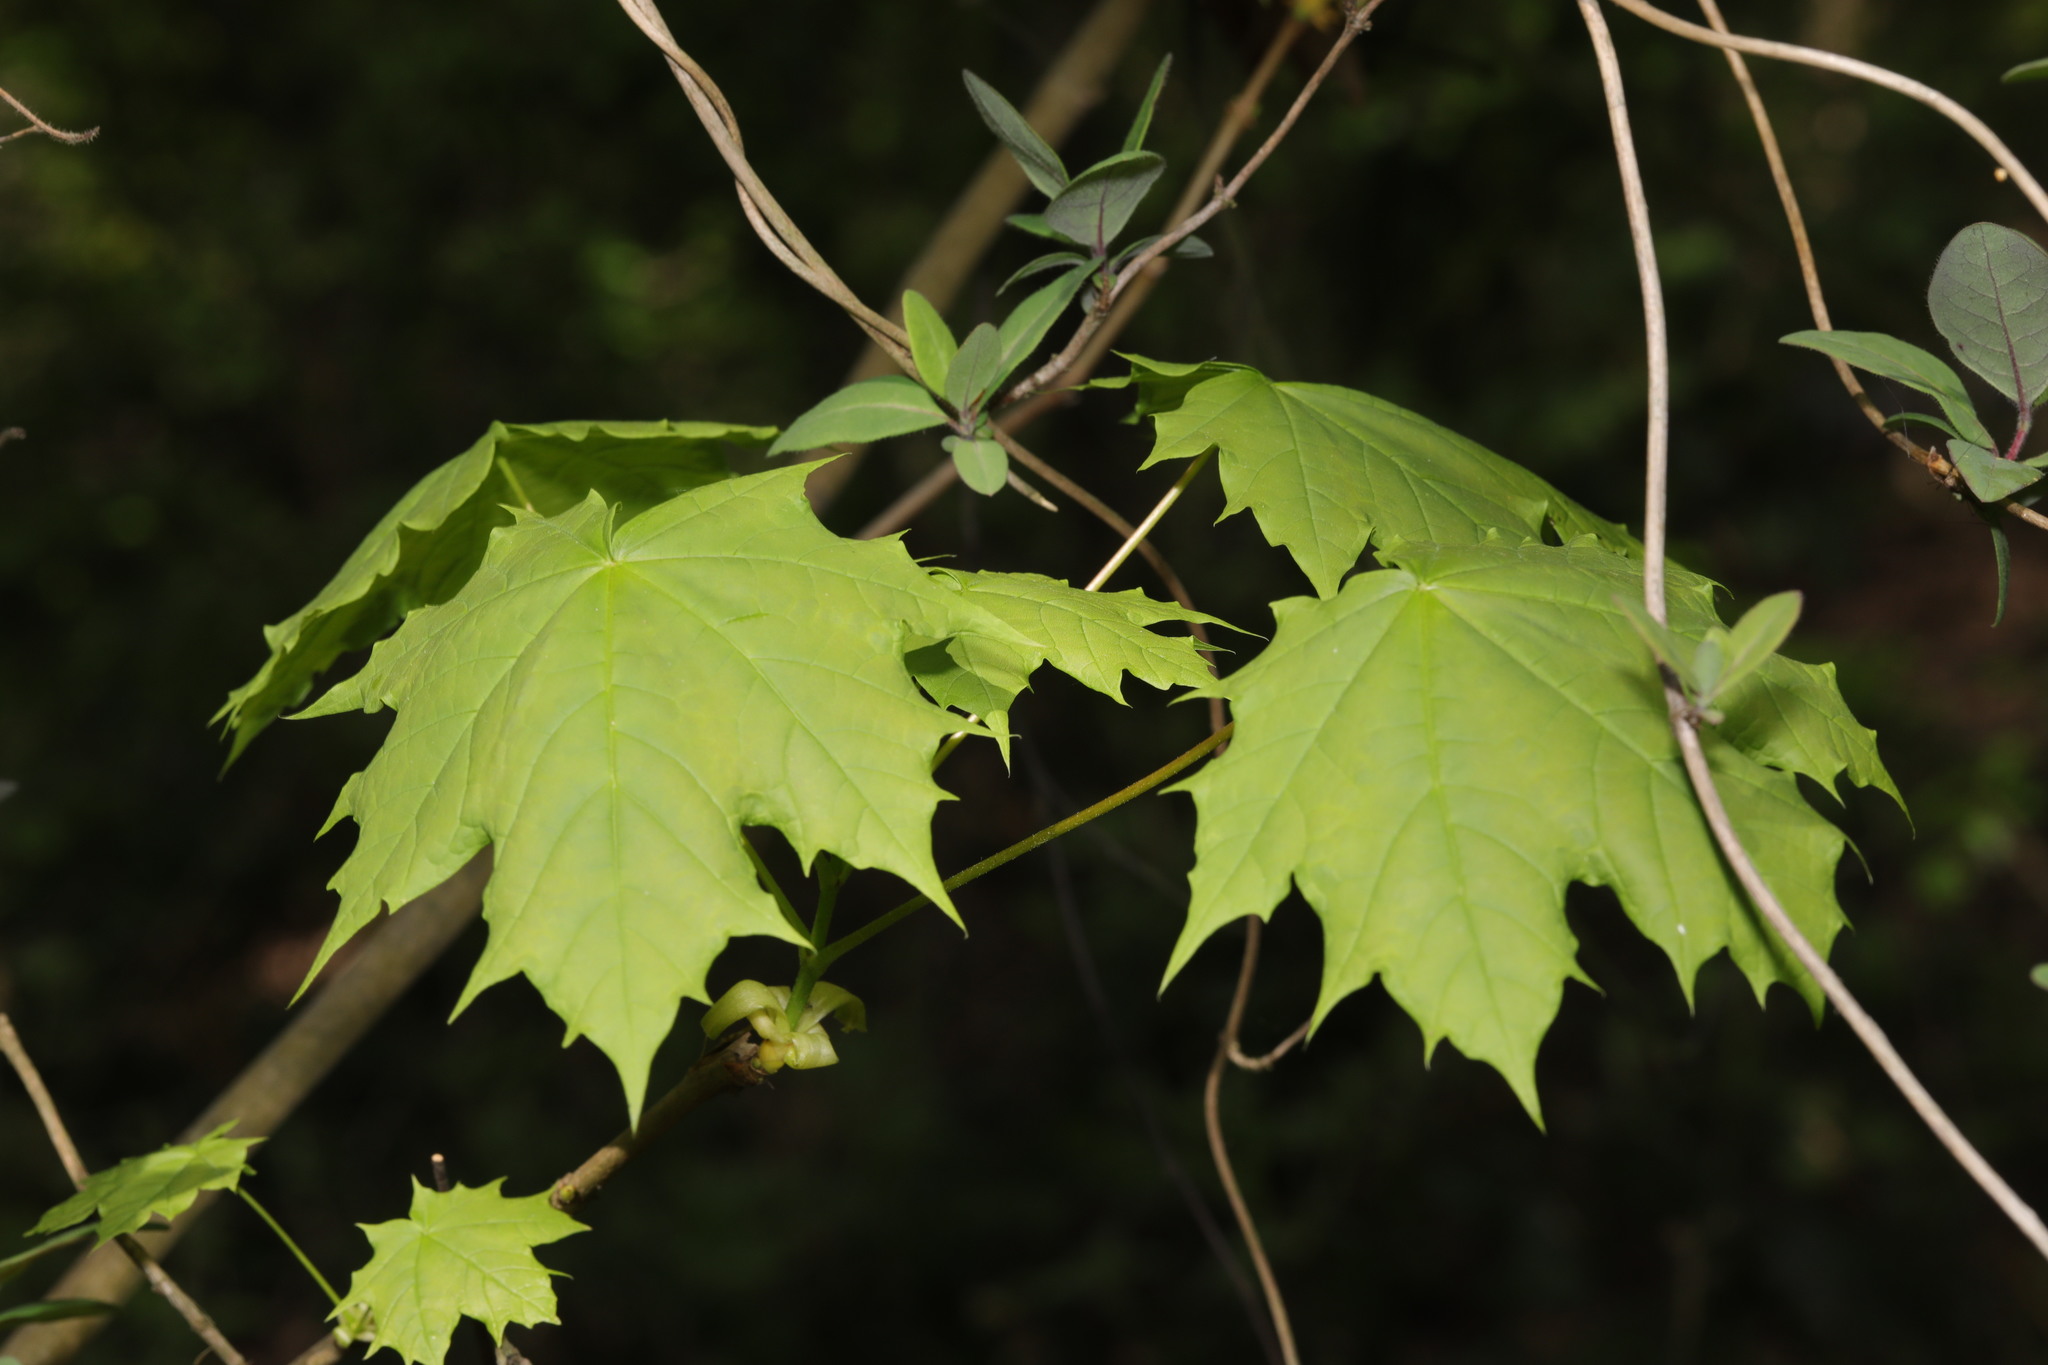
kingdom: Plantae
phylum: Tracheophyta
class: Magnoliopsida
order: Sapindales
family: Sapindaceae
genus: Acer
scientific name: Acer platanoides
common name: Norway maple
